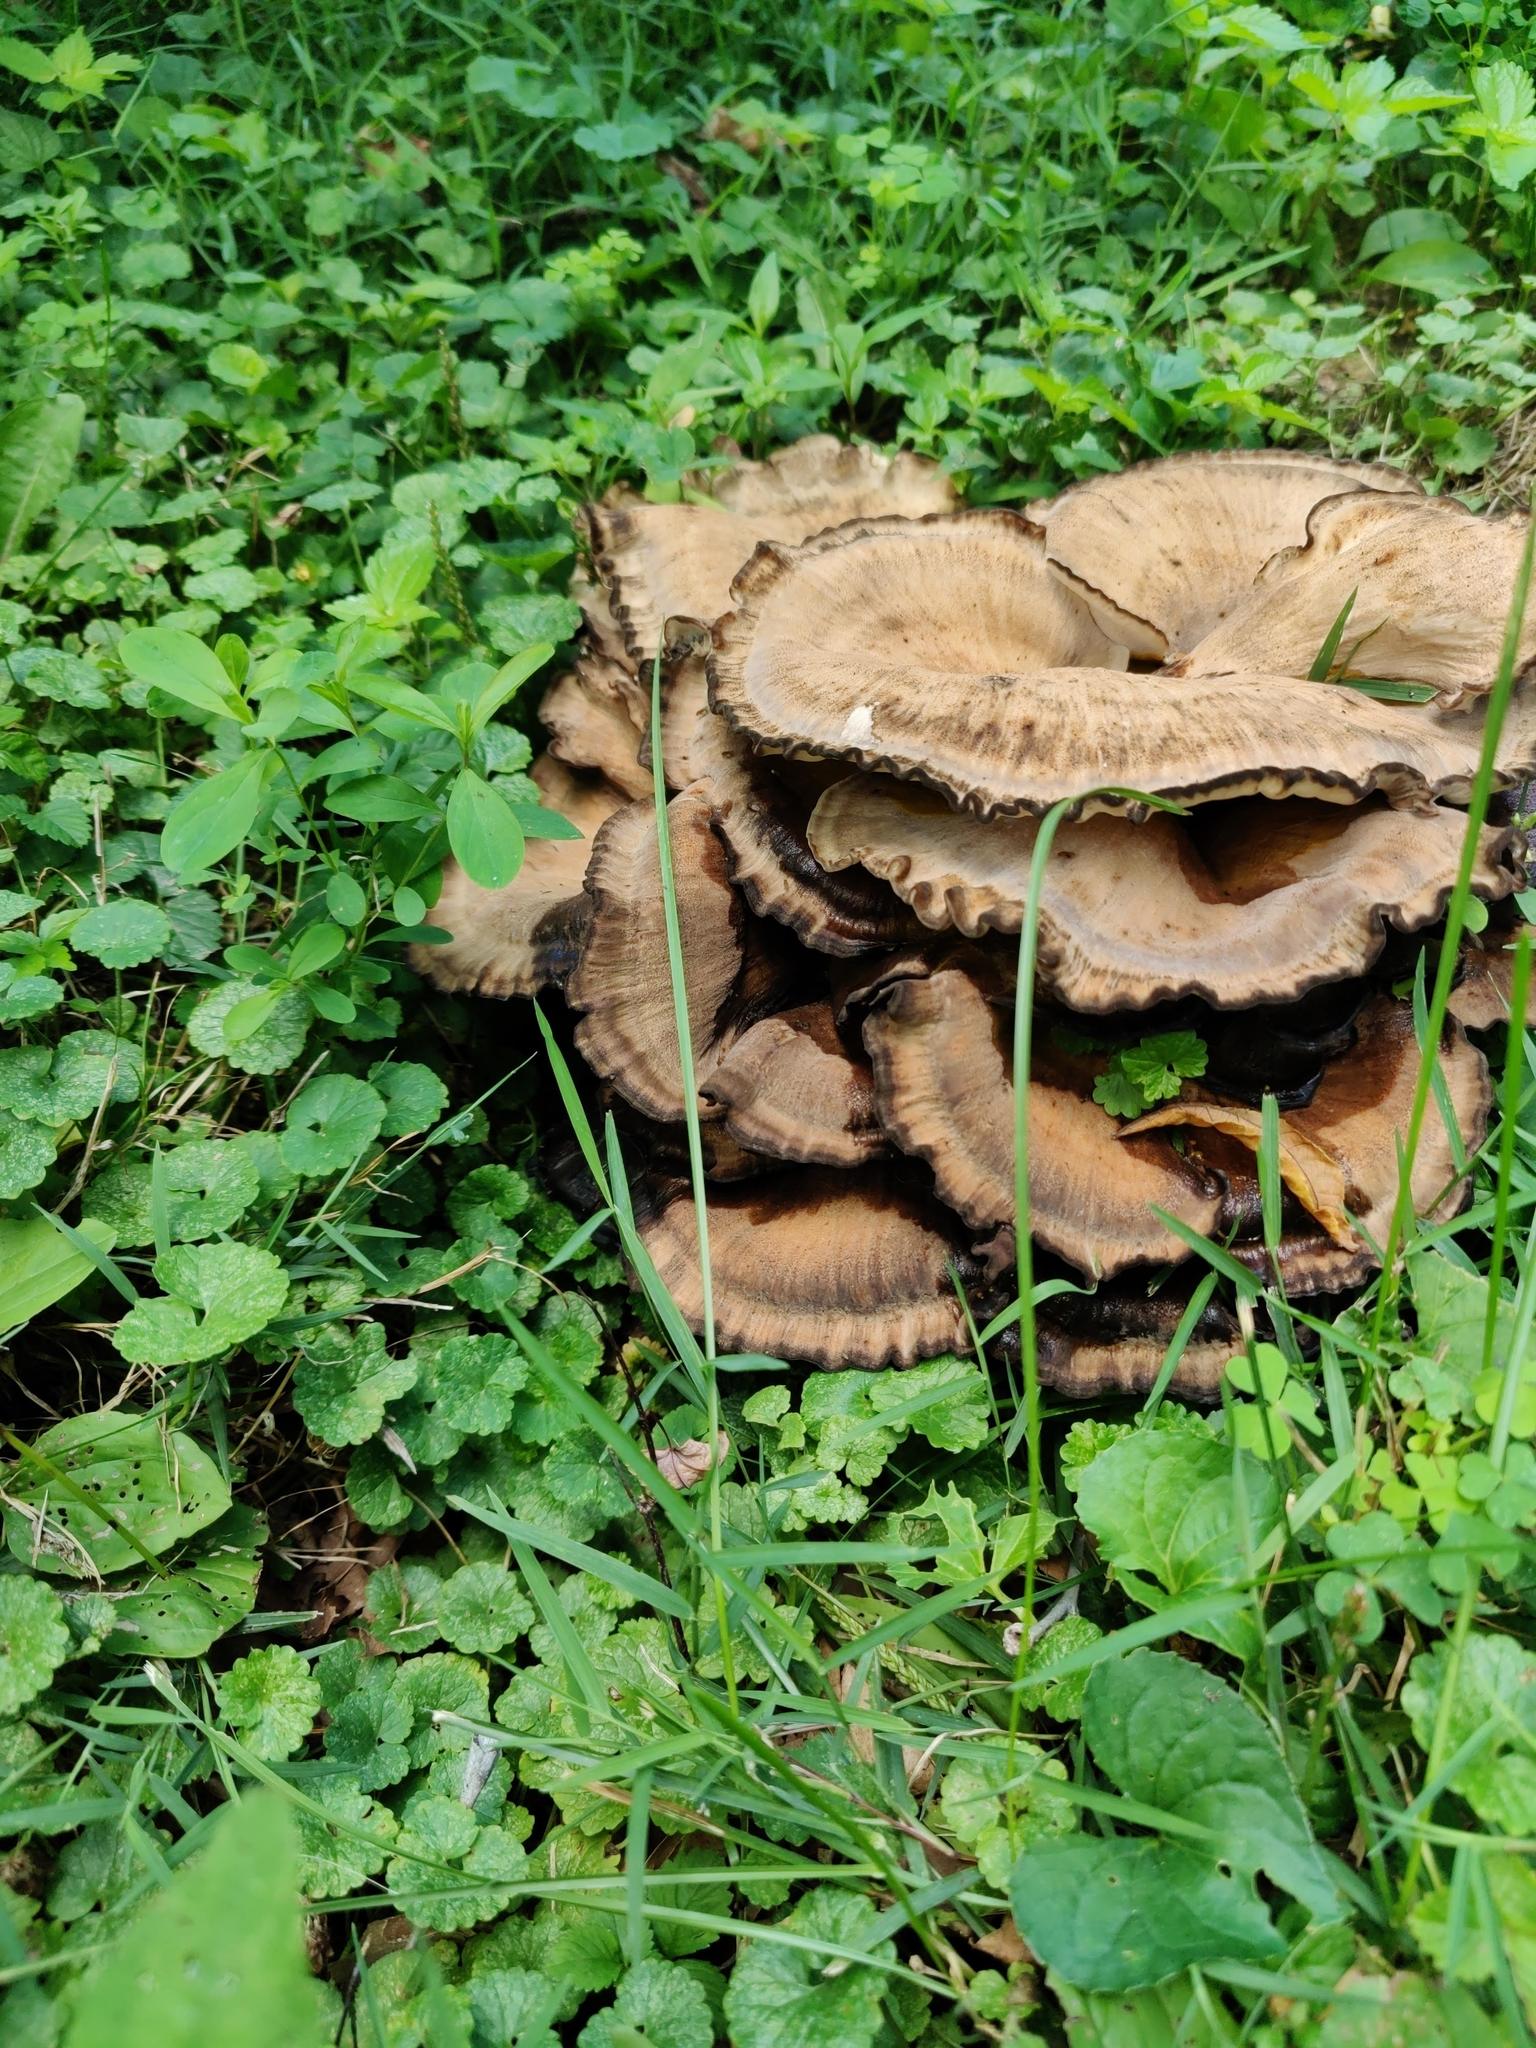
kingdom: Fungi
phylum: Basidiomycota
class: Agaricomycetes
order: Polyporales
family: Meripilaceae
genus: Meripilus
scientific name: Meripilus sumstinei
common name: Black-staining polypore
